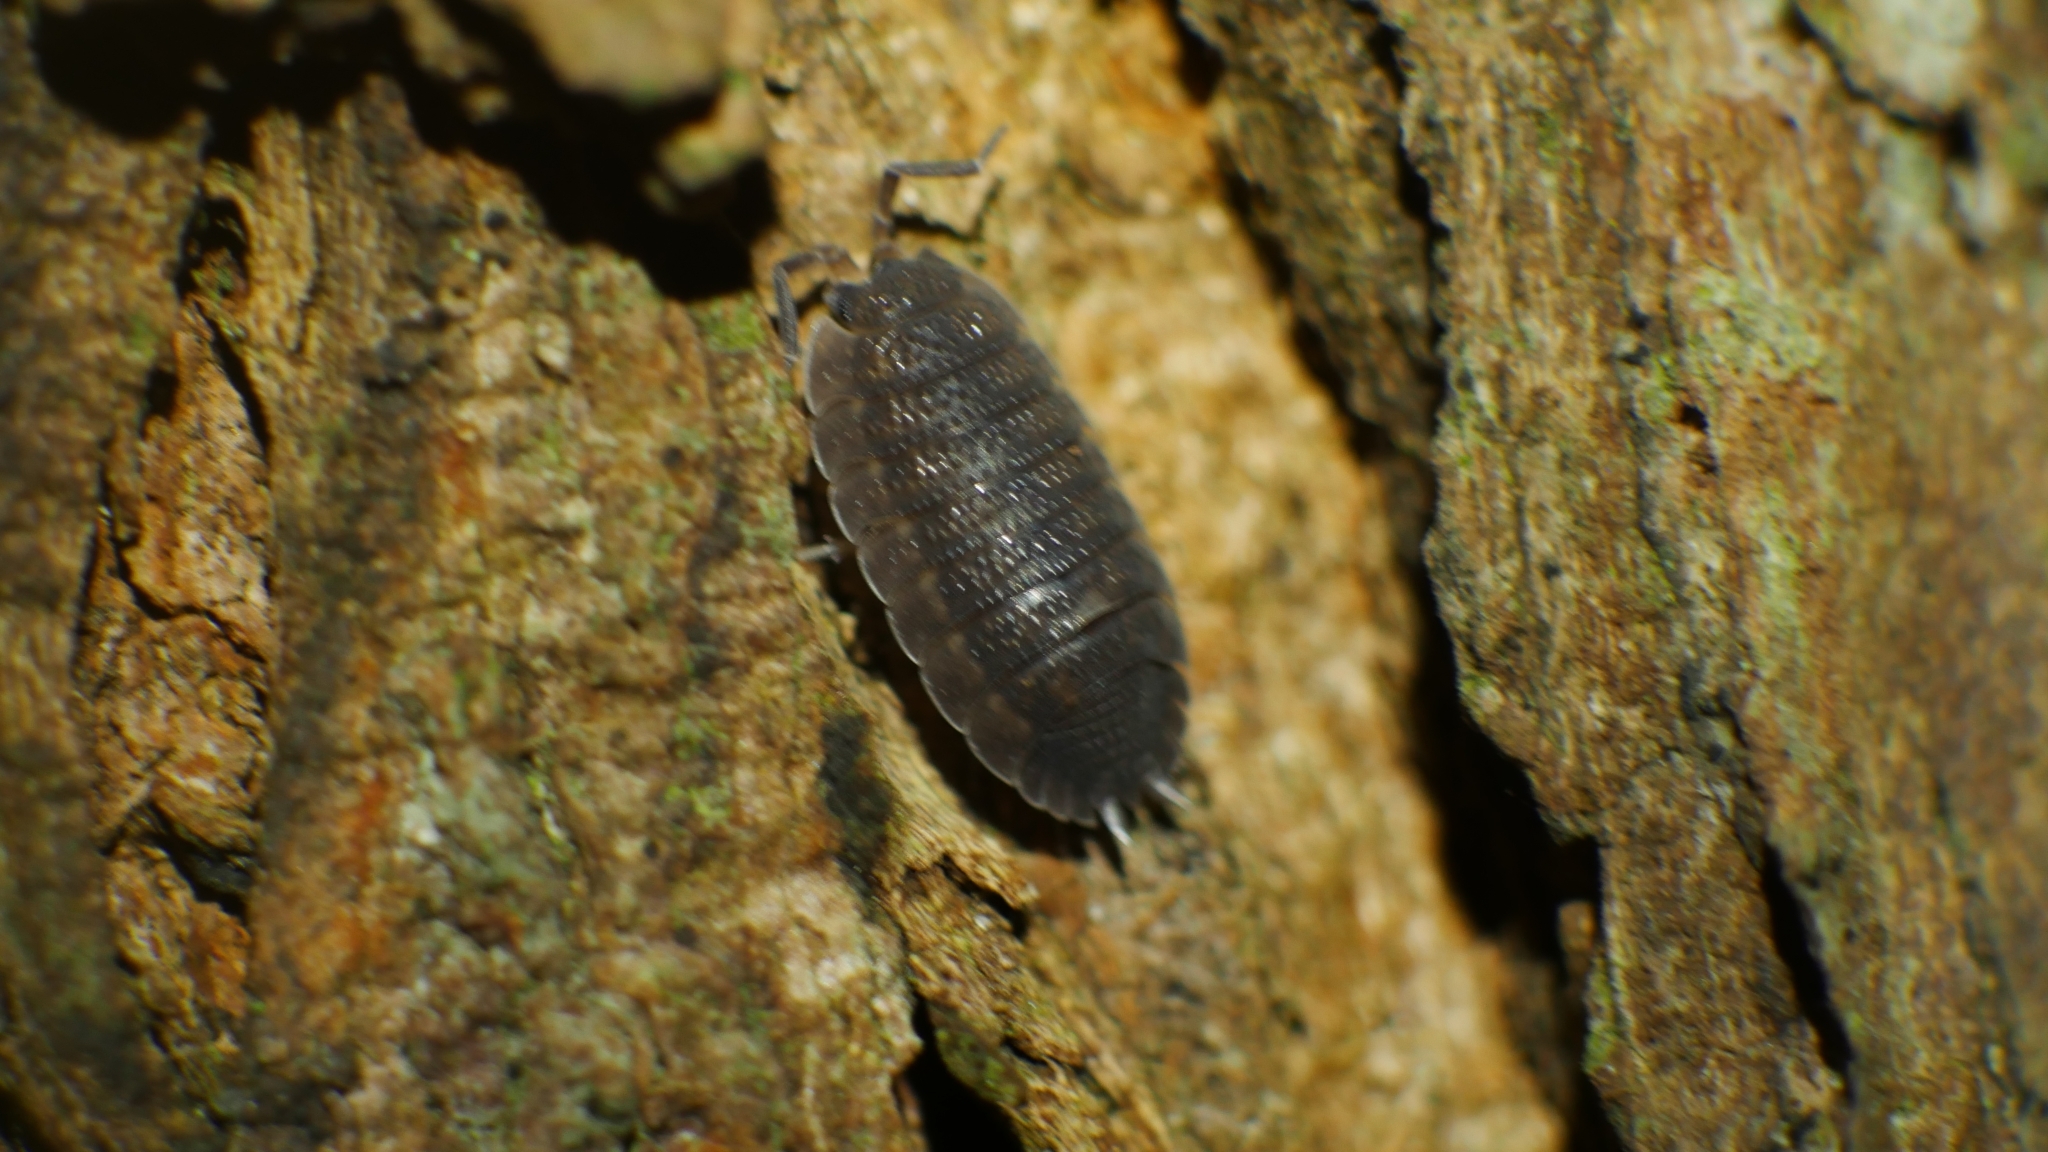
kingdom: Animalia
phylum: Arthropoda
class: Malacostraca
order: Isopoda
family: Porcellionidae
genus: Porcellio
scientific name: Porcellio scaber
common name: Common rough woodlouse
